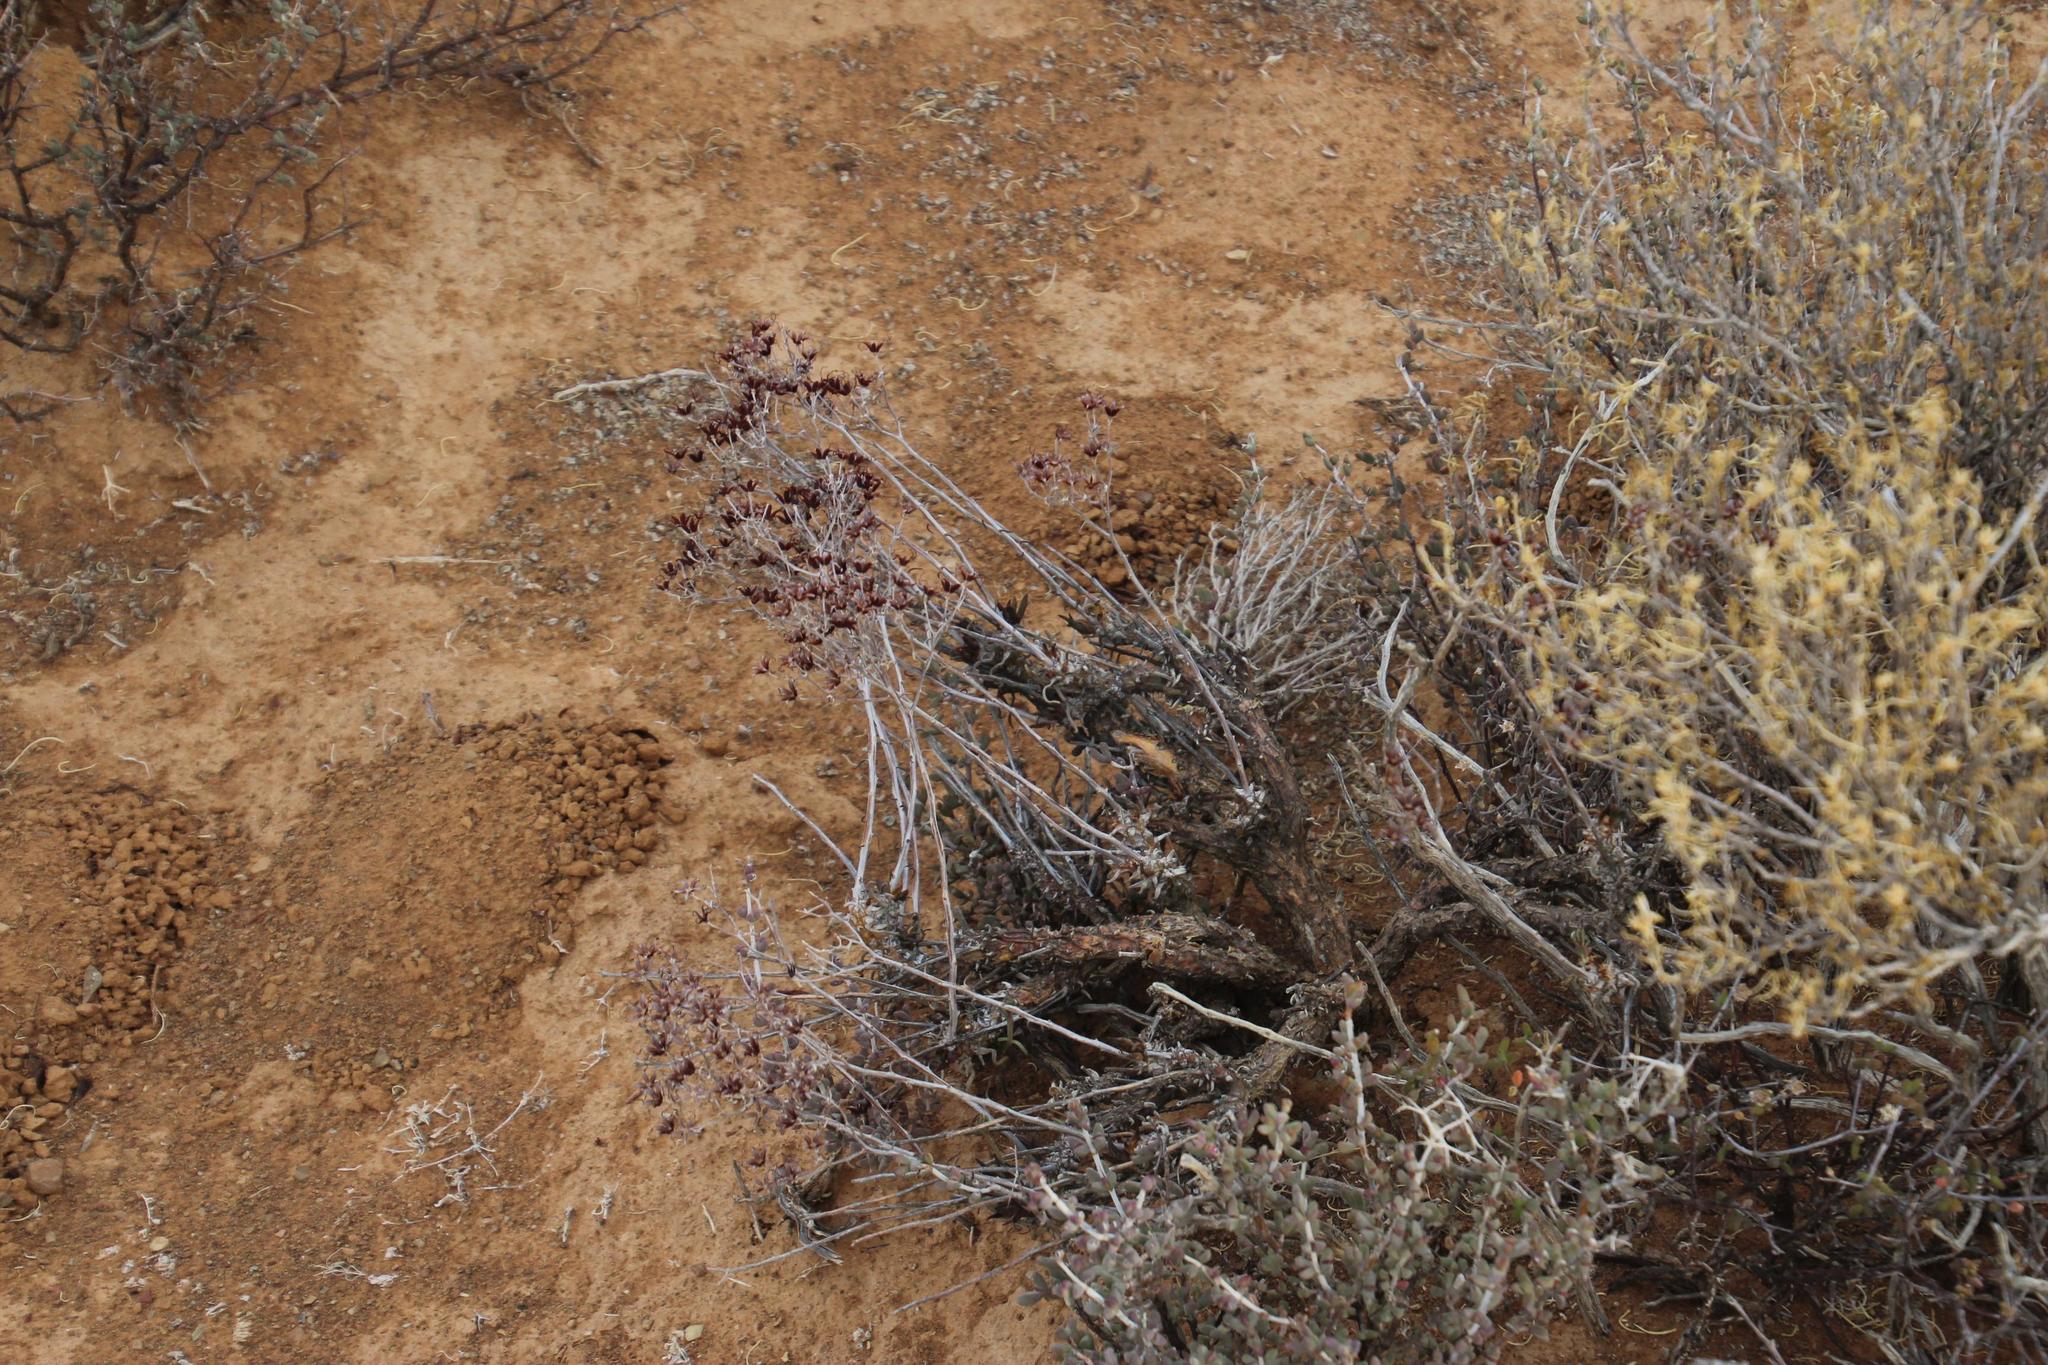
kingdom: Plantae
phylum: Tracheophyta
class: Magnoliopsida
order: Saxifragales
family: Crassulaceae
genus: Tylecodon
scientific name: Tylecodon wallichii
